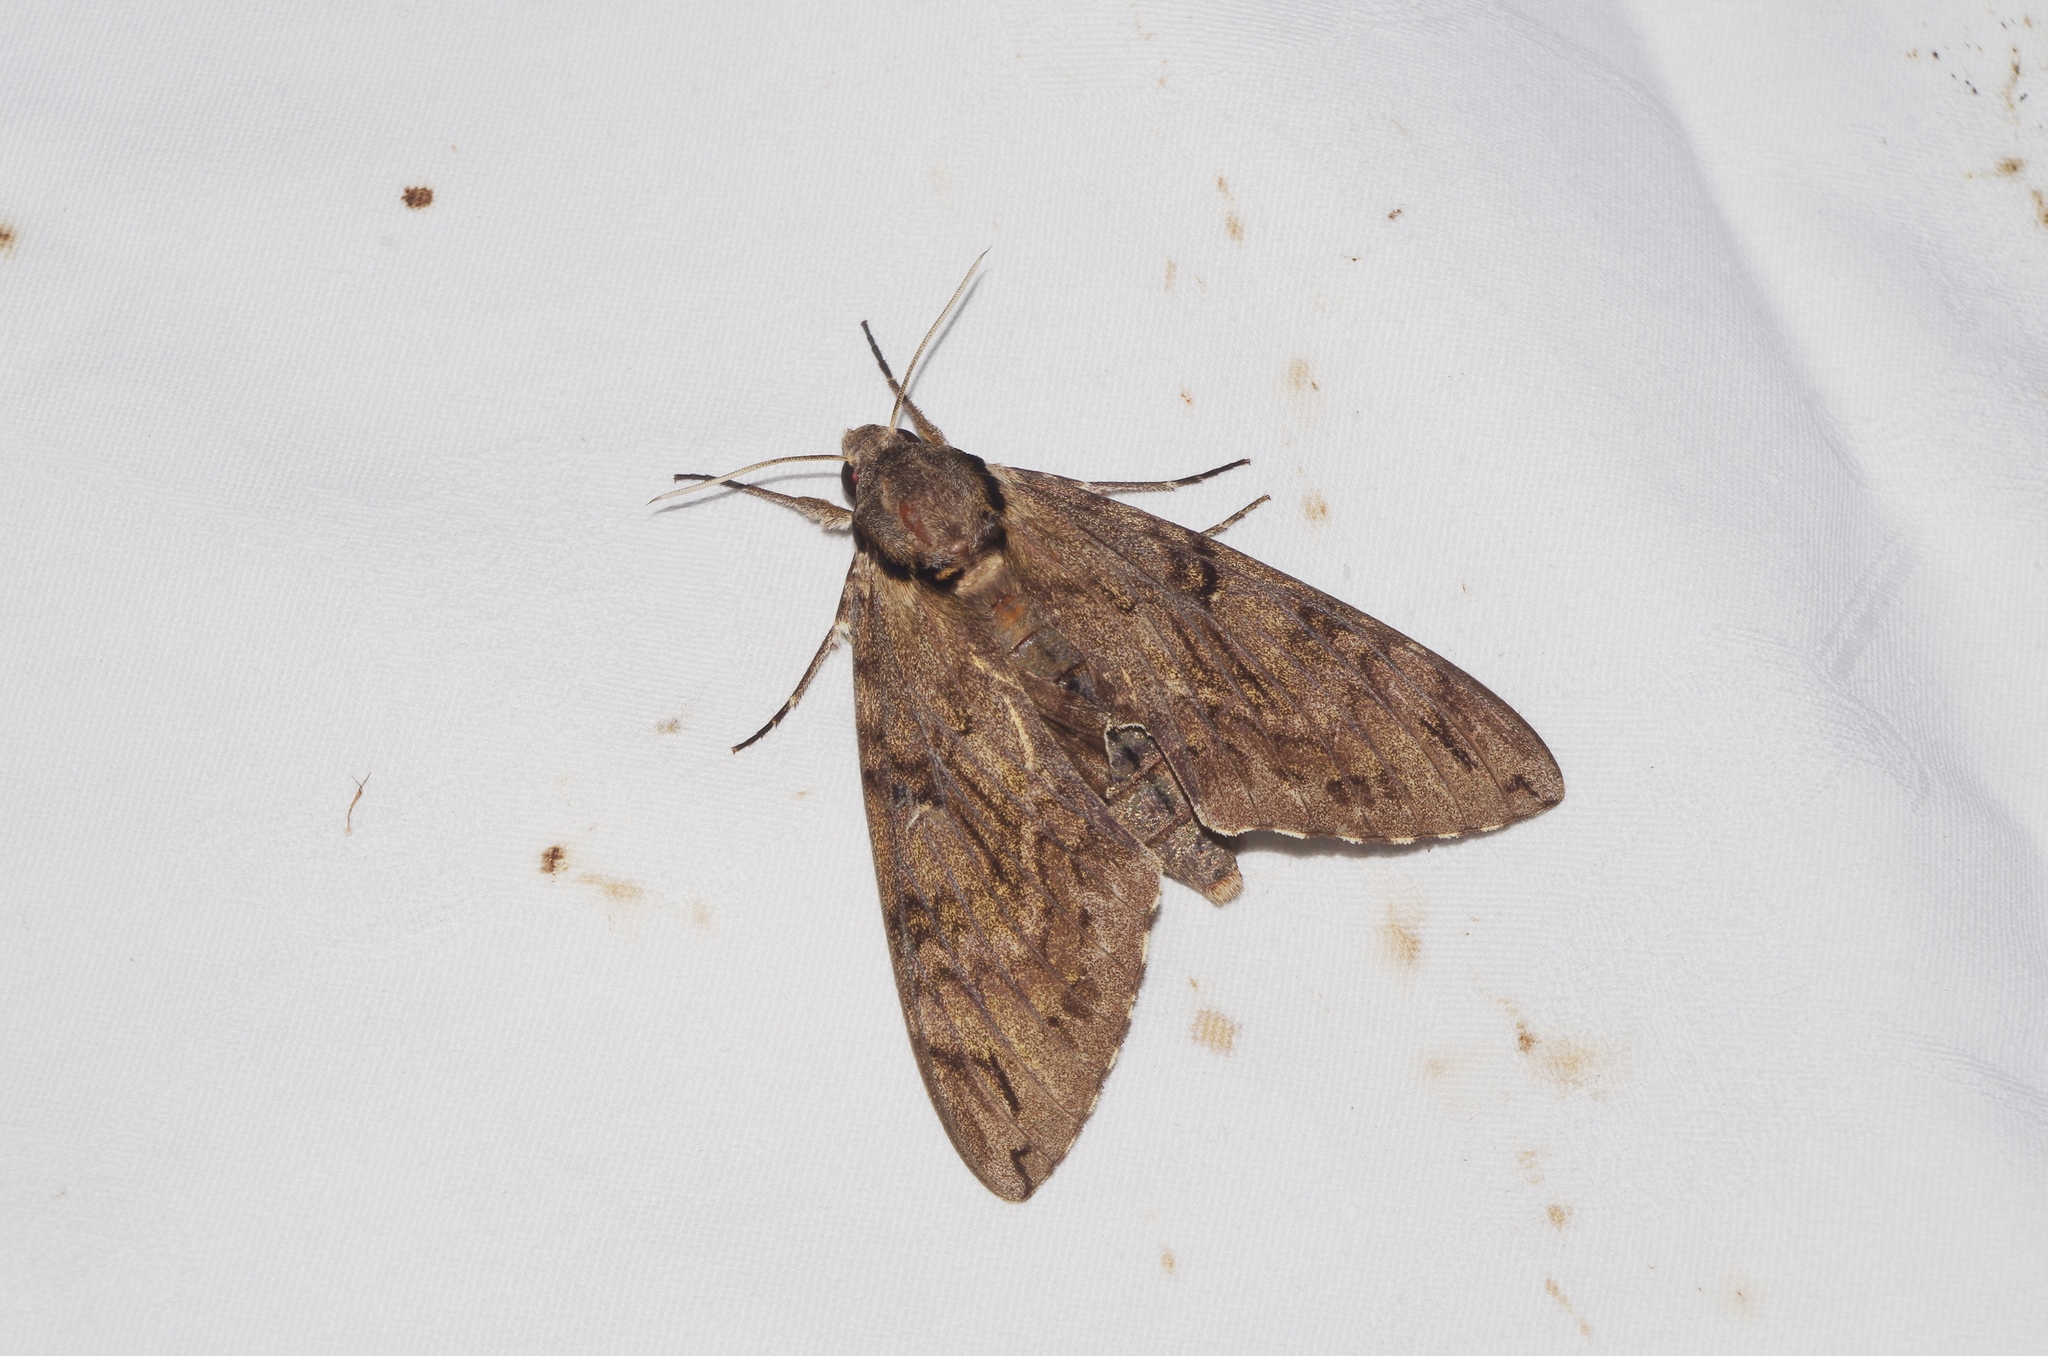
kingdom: Animalia
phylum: Arthropoda
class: Insecta
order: Lepidoptera
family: Sphingidae
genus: Psilogramma
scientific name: Psilogramma increta
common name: Gray hawk moth
